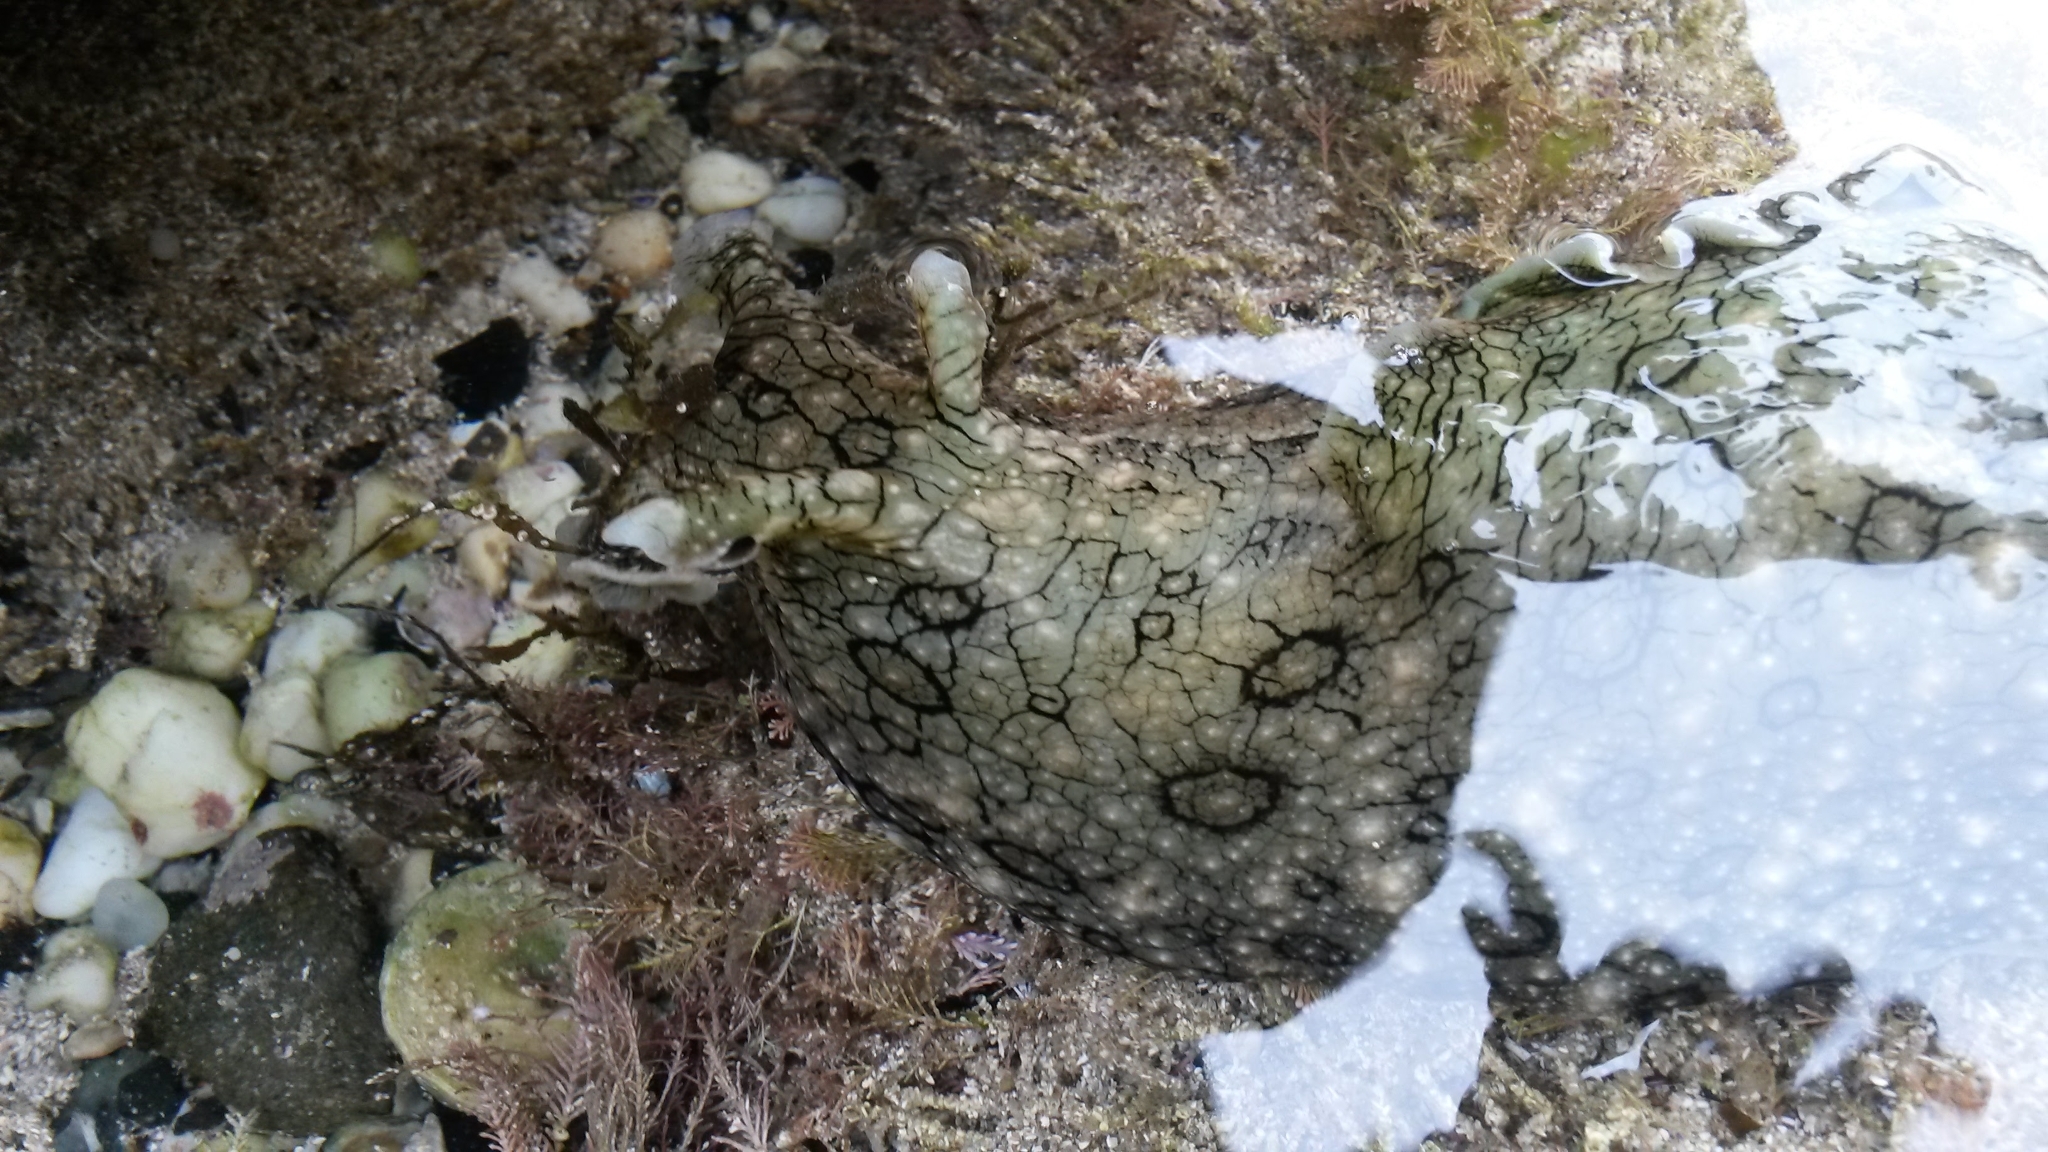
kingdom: Animalia
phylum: Mollusca
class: Gastropoda
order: Aplysiida
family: Aplysiidae
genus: Aplysia
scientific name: Aplysia argus
